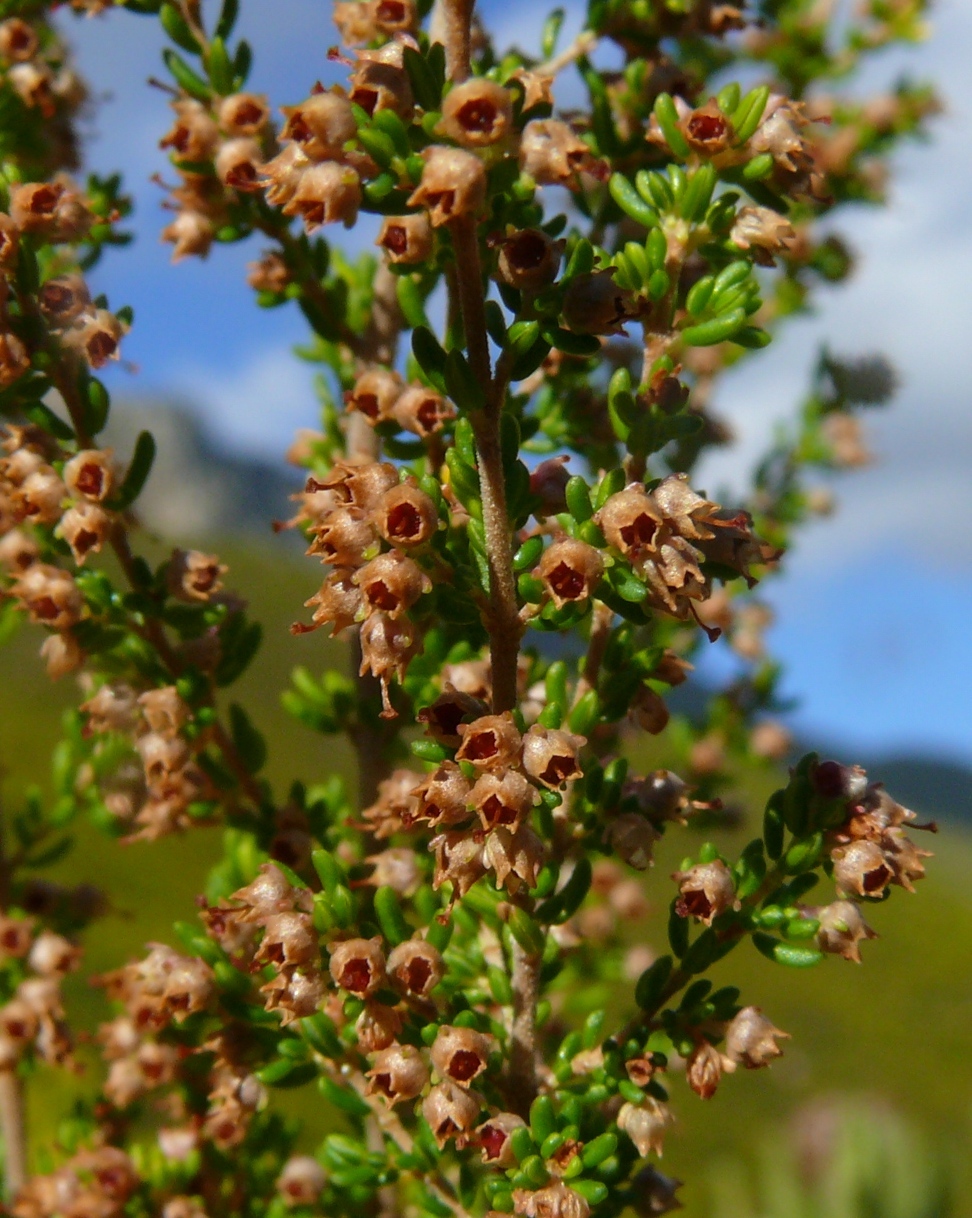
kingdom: Plantae
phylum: Tracheophyta
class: Magnoliopsida
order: Ericales
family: Ericaceae
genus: Erica
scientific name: Erica hispidula
